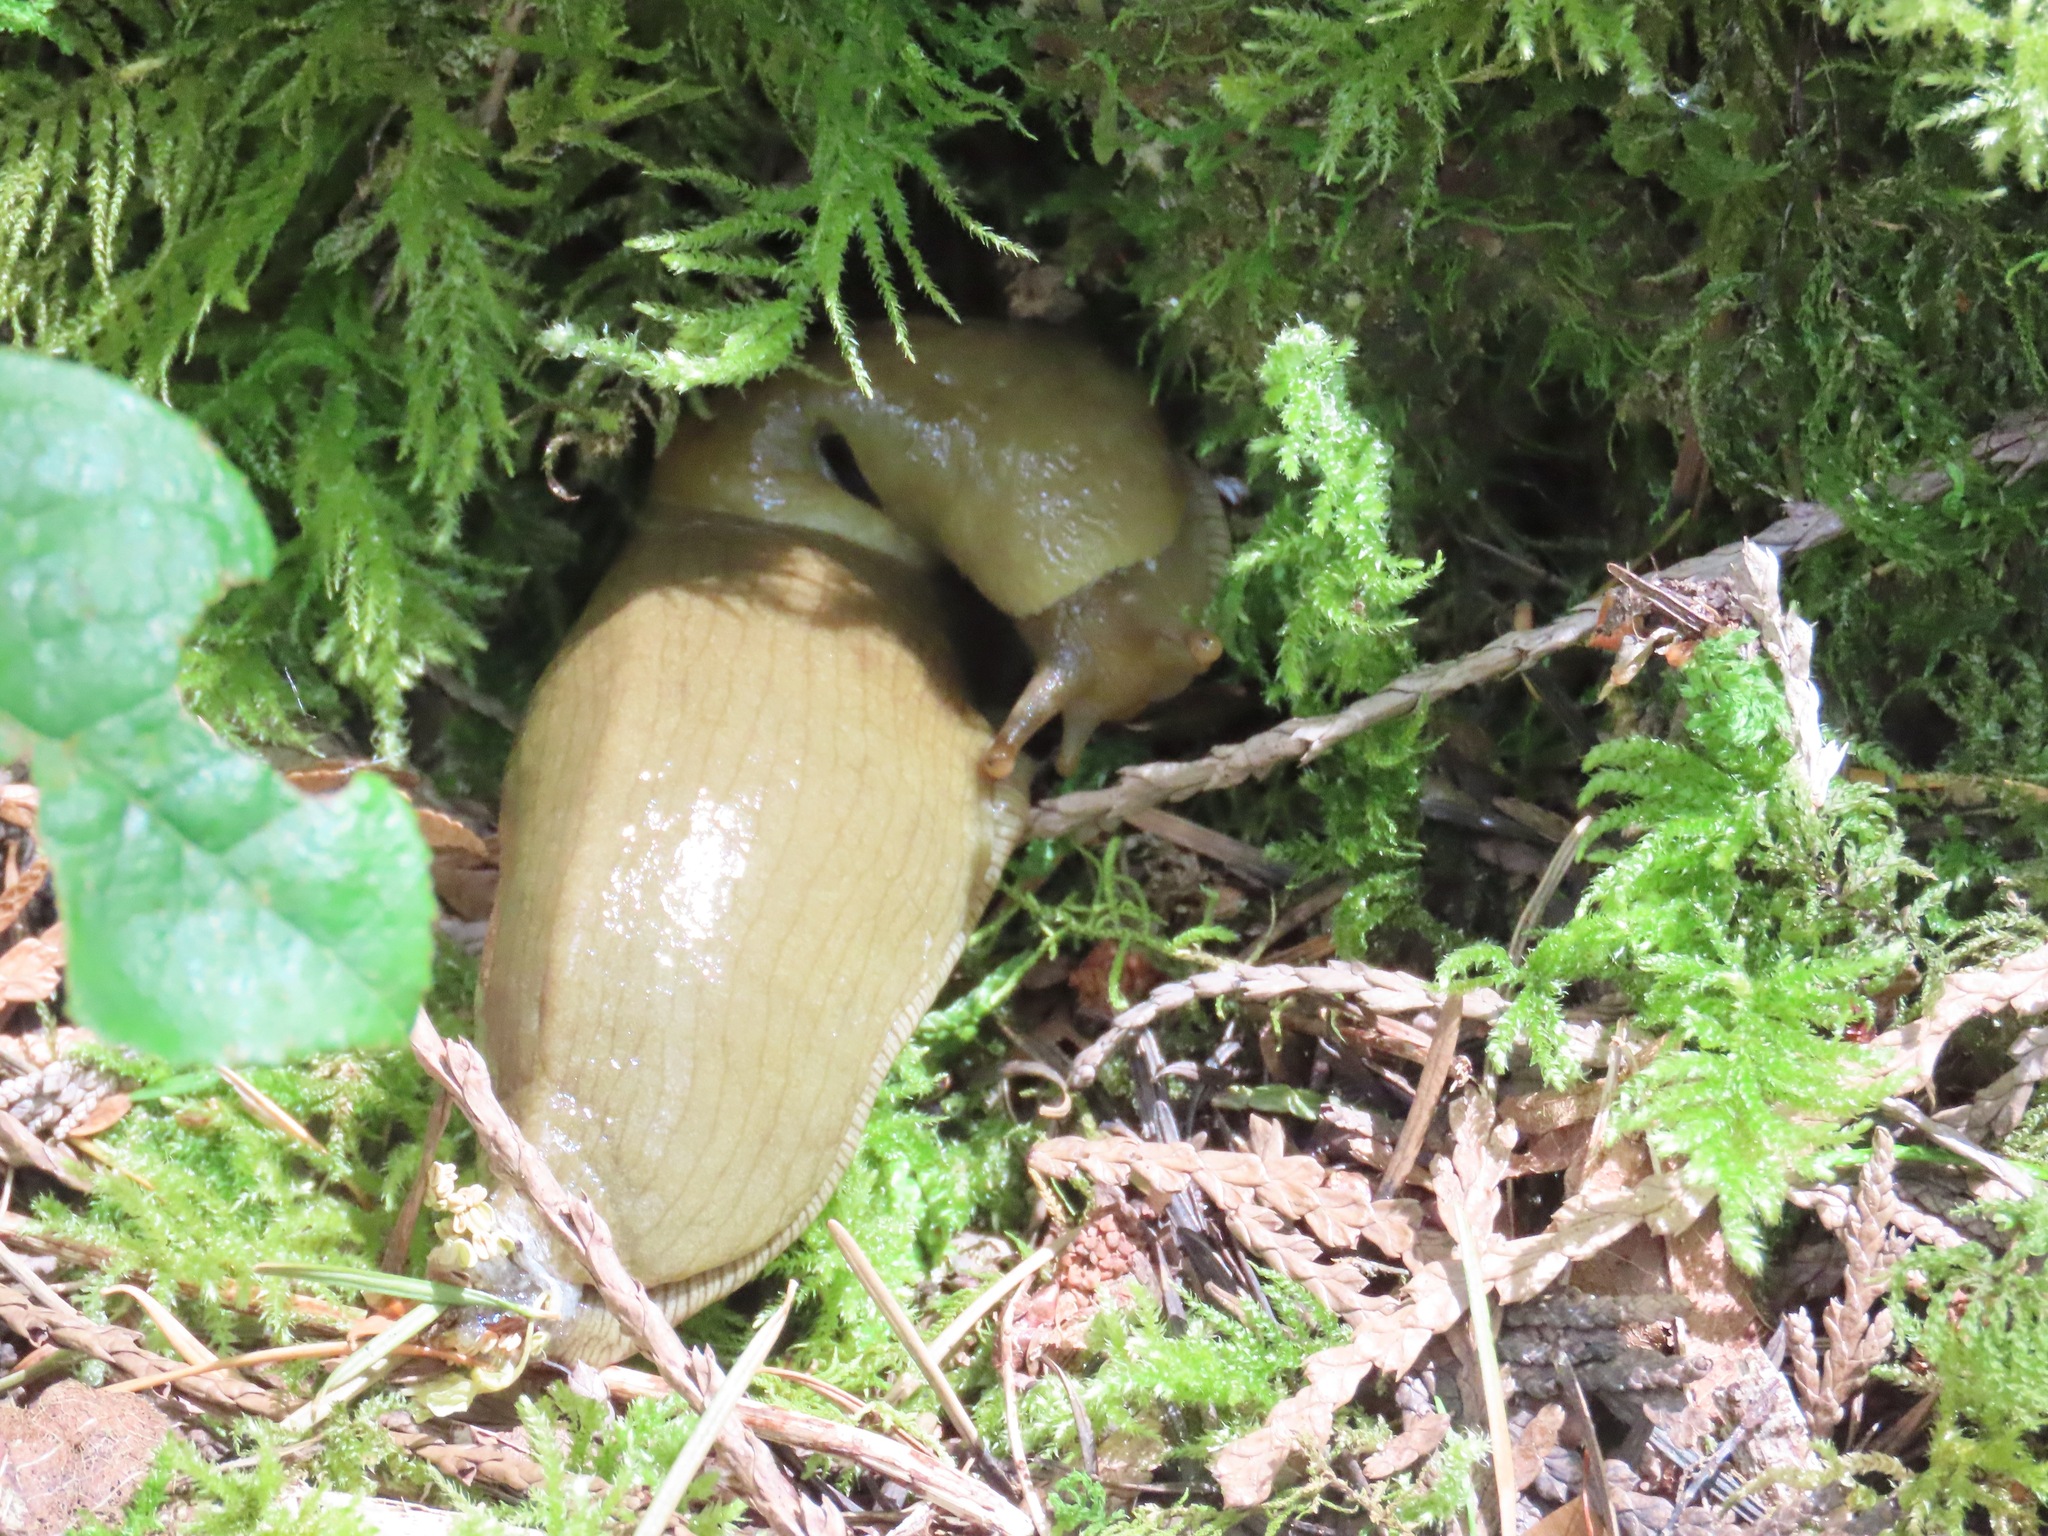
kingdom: Animalia
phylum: Mollusca
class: Gastropoda
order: Stylommatophora
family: Ariolimacidae
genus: Ariolimax
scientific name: Ariolimax columbianus
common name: Pacific banana slug
